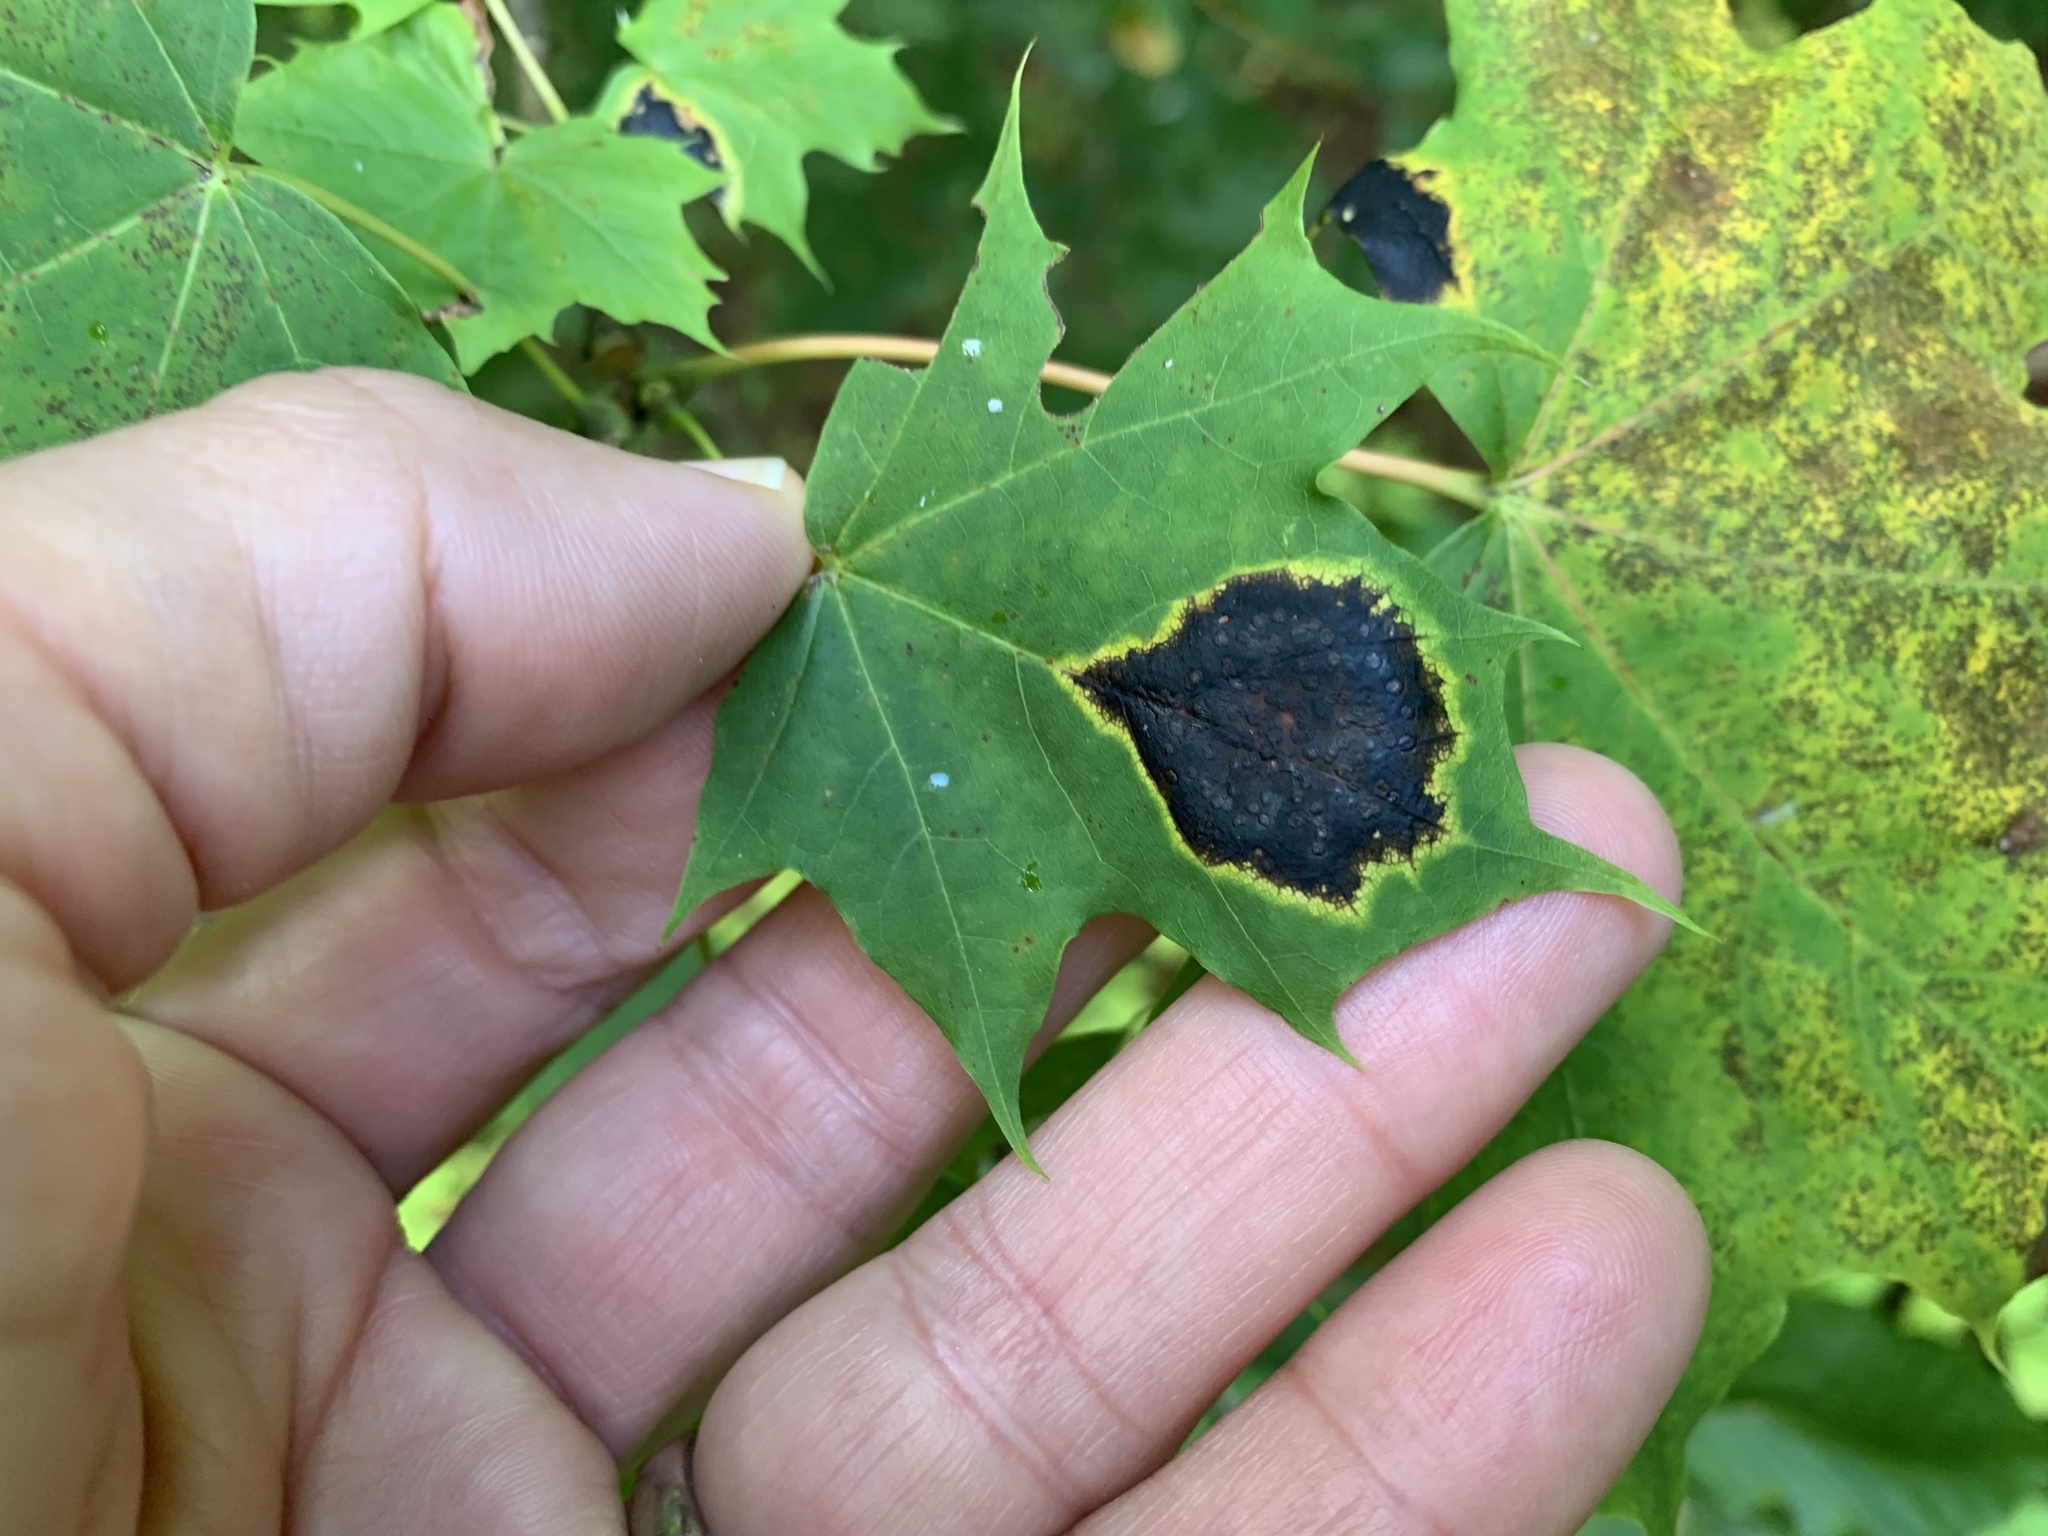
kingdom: Fungi
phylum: Ascomycota
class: Leotiomycetes
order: Rhytismatales
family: Rhytismataceae
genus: Rhytisma
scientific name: Rhytisma acerinum
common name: European tar spot
